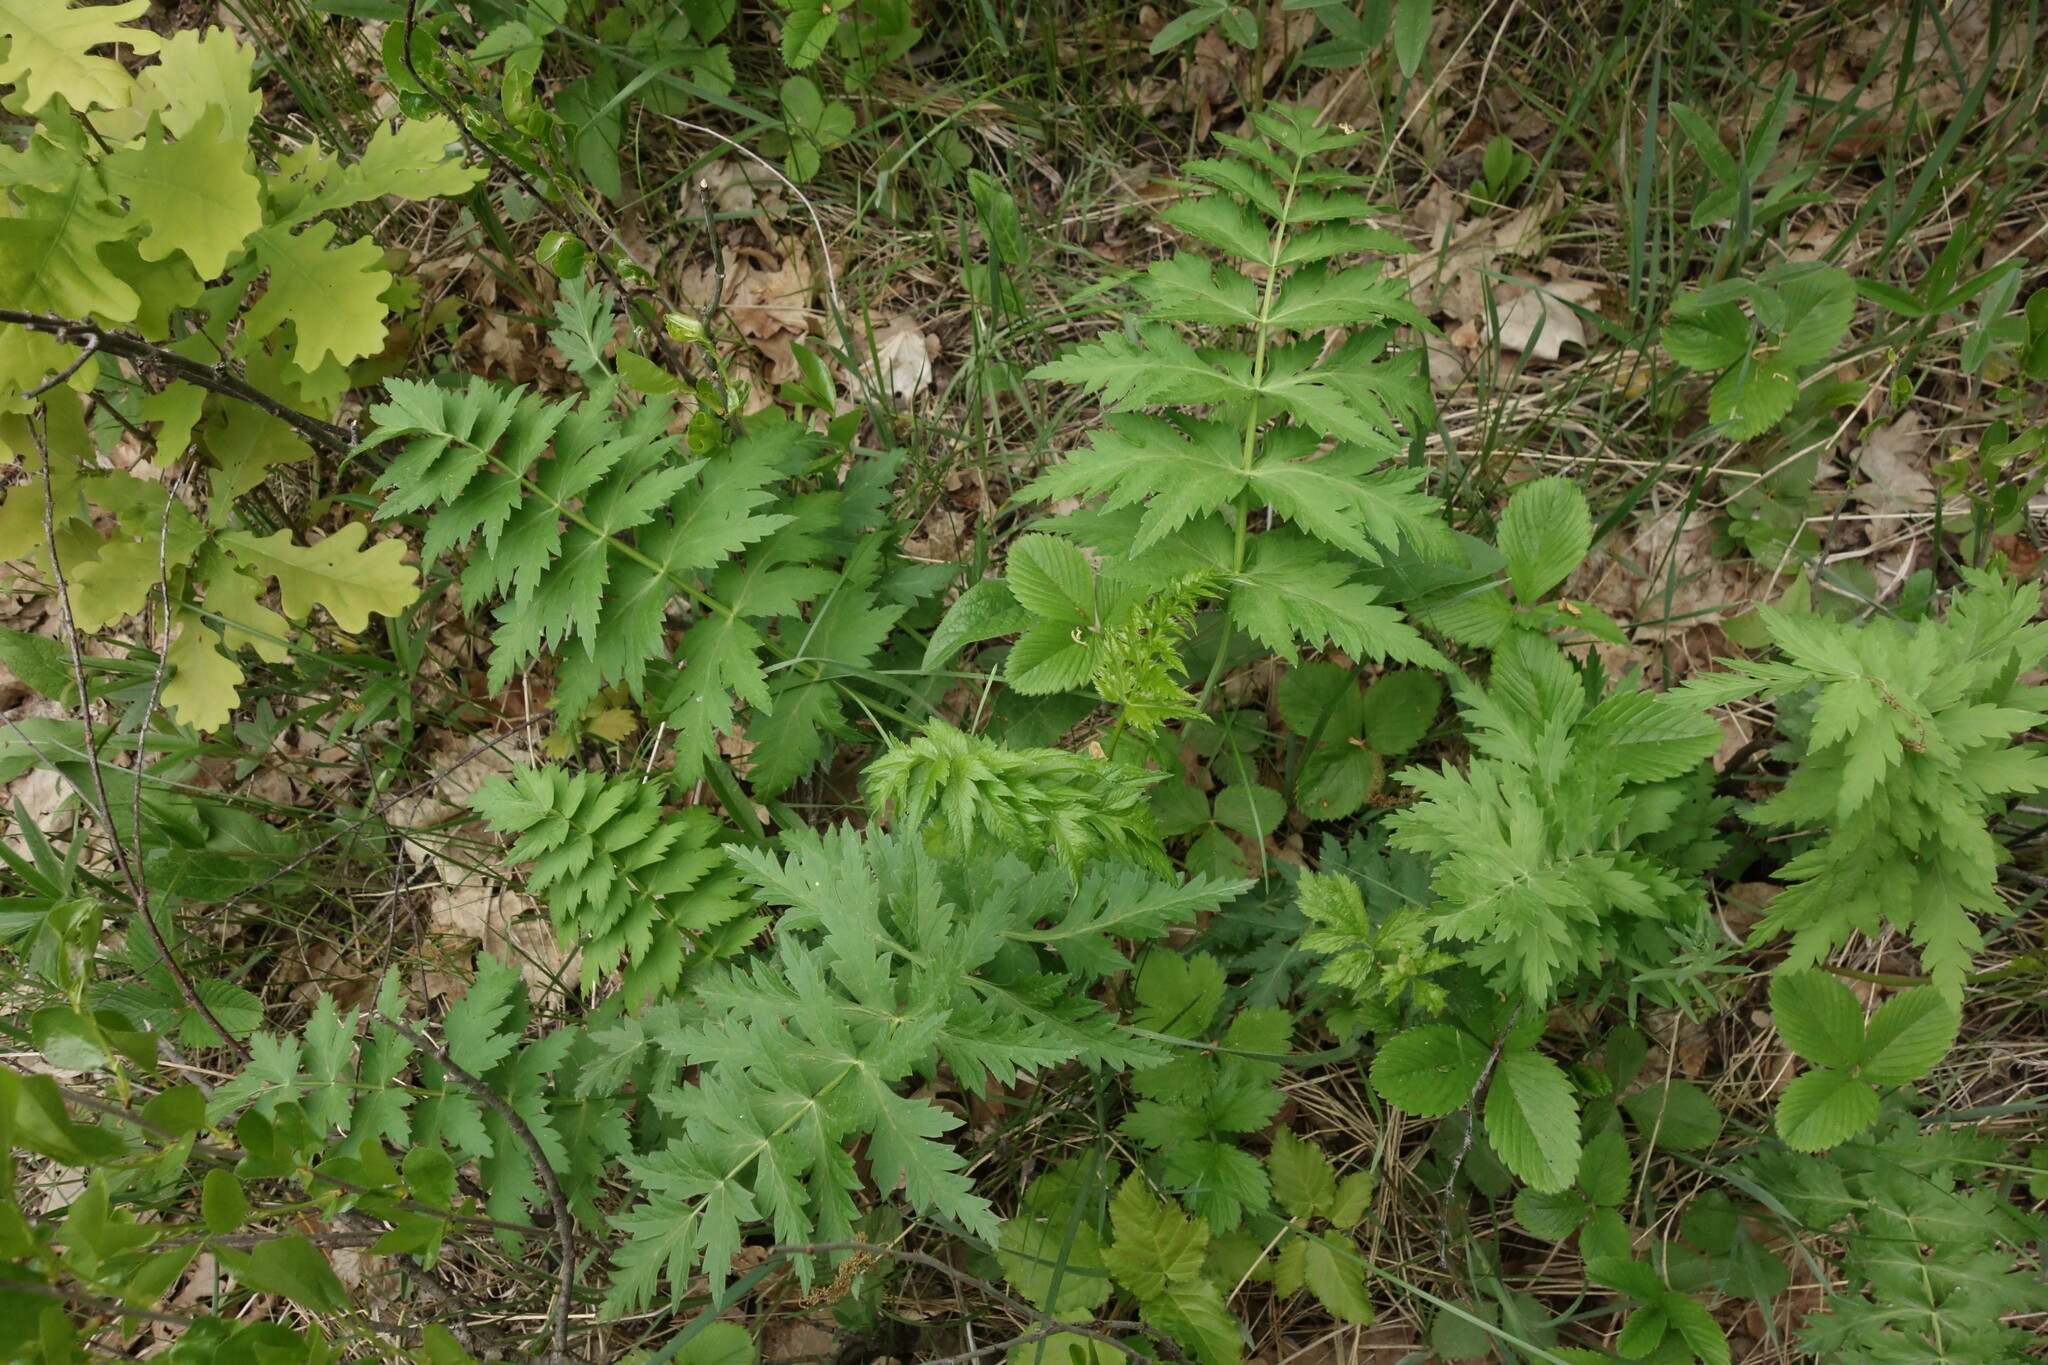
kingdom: Plantae
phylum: Tracheophyta
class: Magnoliopsida
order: Apiales
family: Apiaceae
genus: Seseli
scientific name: Seseli libanotis
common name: Mooncarrot
